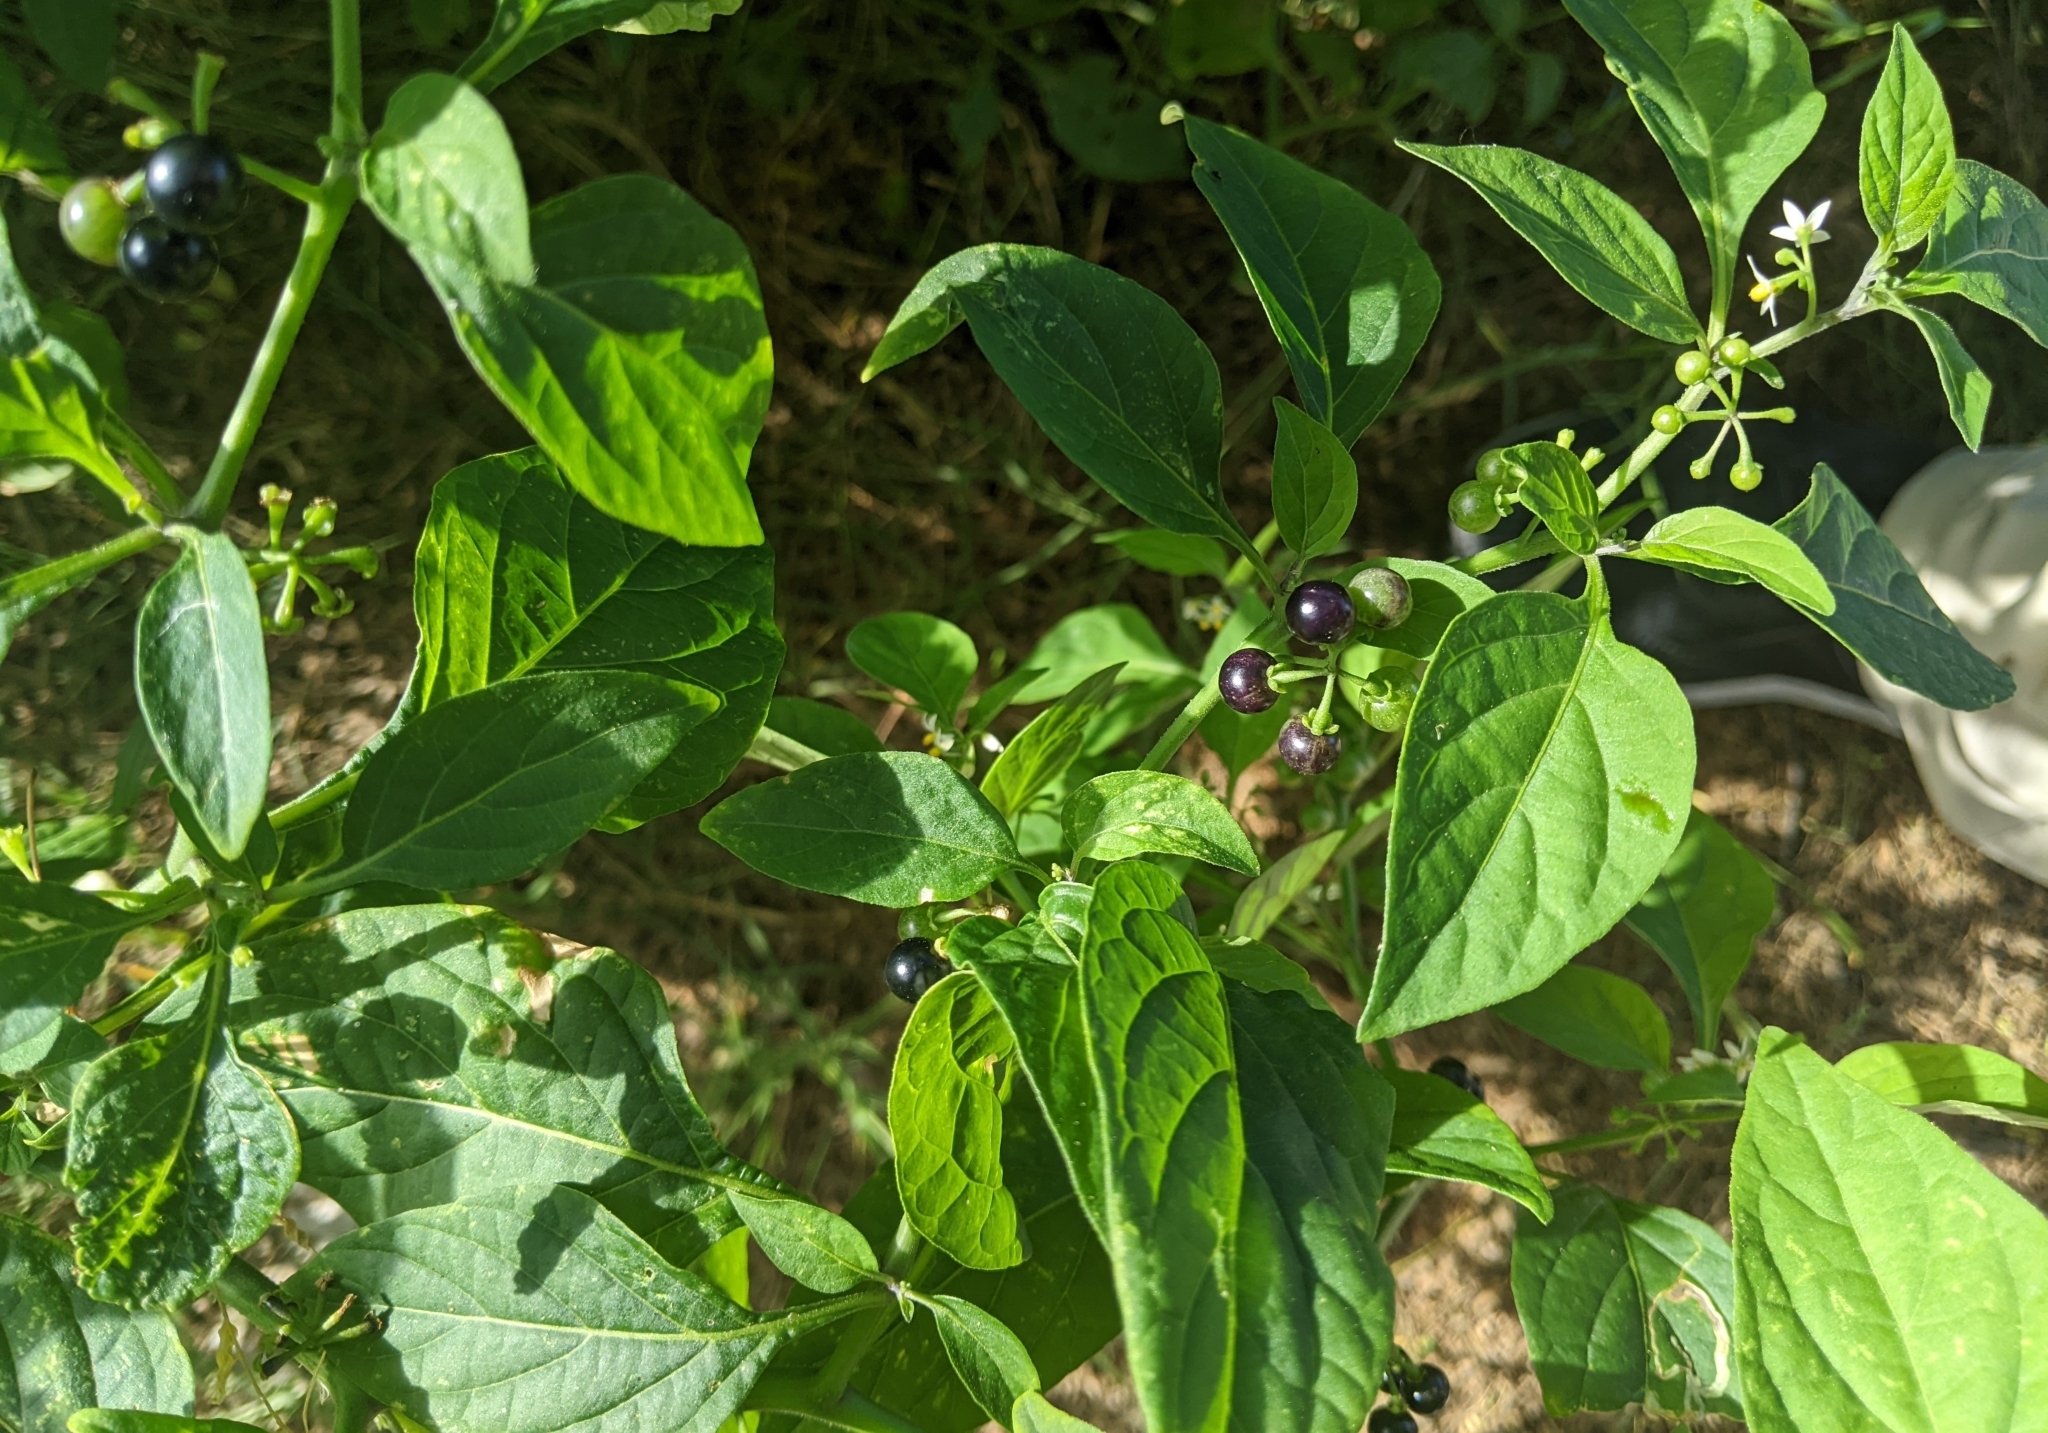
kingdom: Plantae
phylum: Tracheophyta
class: Magnoliopsida
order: Solanales
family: Solanaceae
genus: Solanum
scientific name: Solanum americanum
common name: American black nightshade
